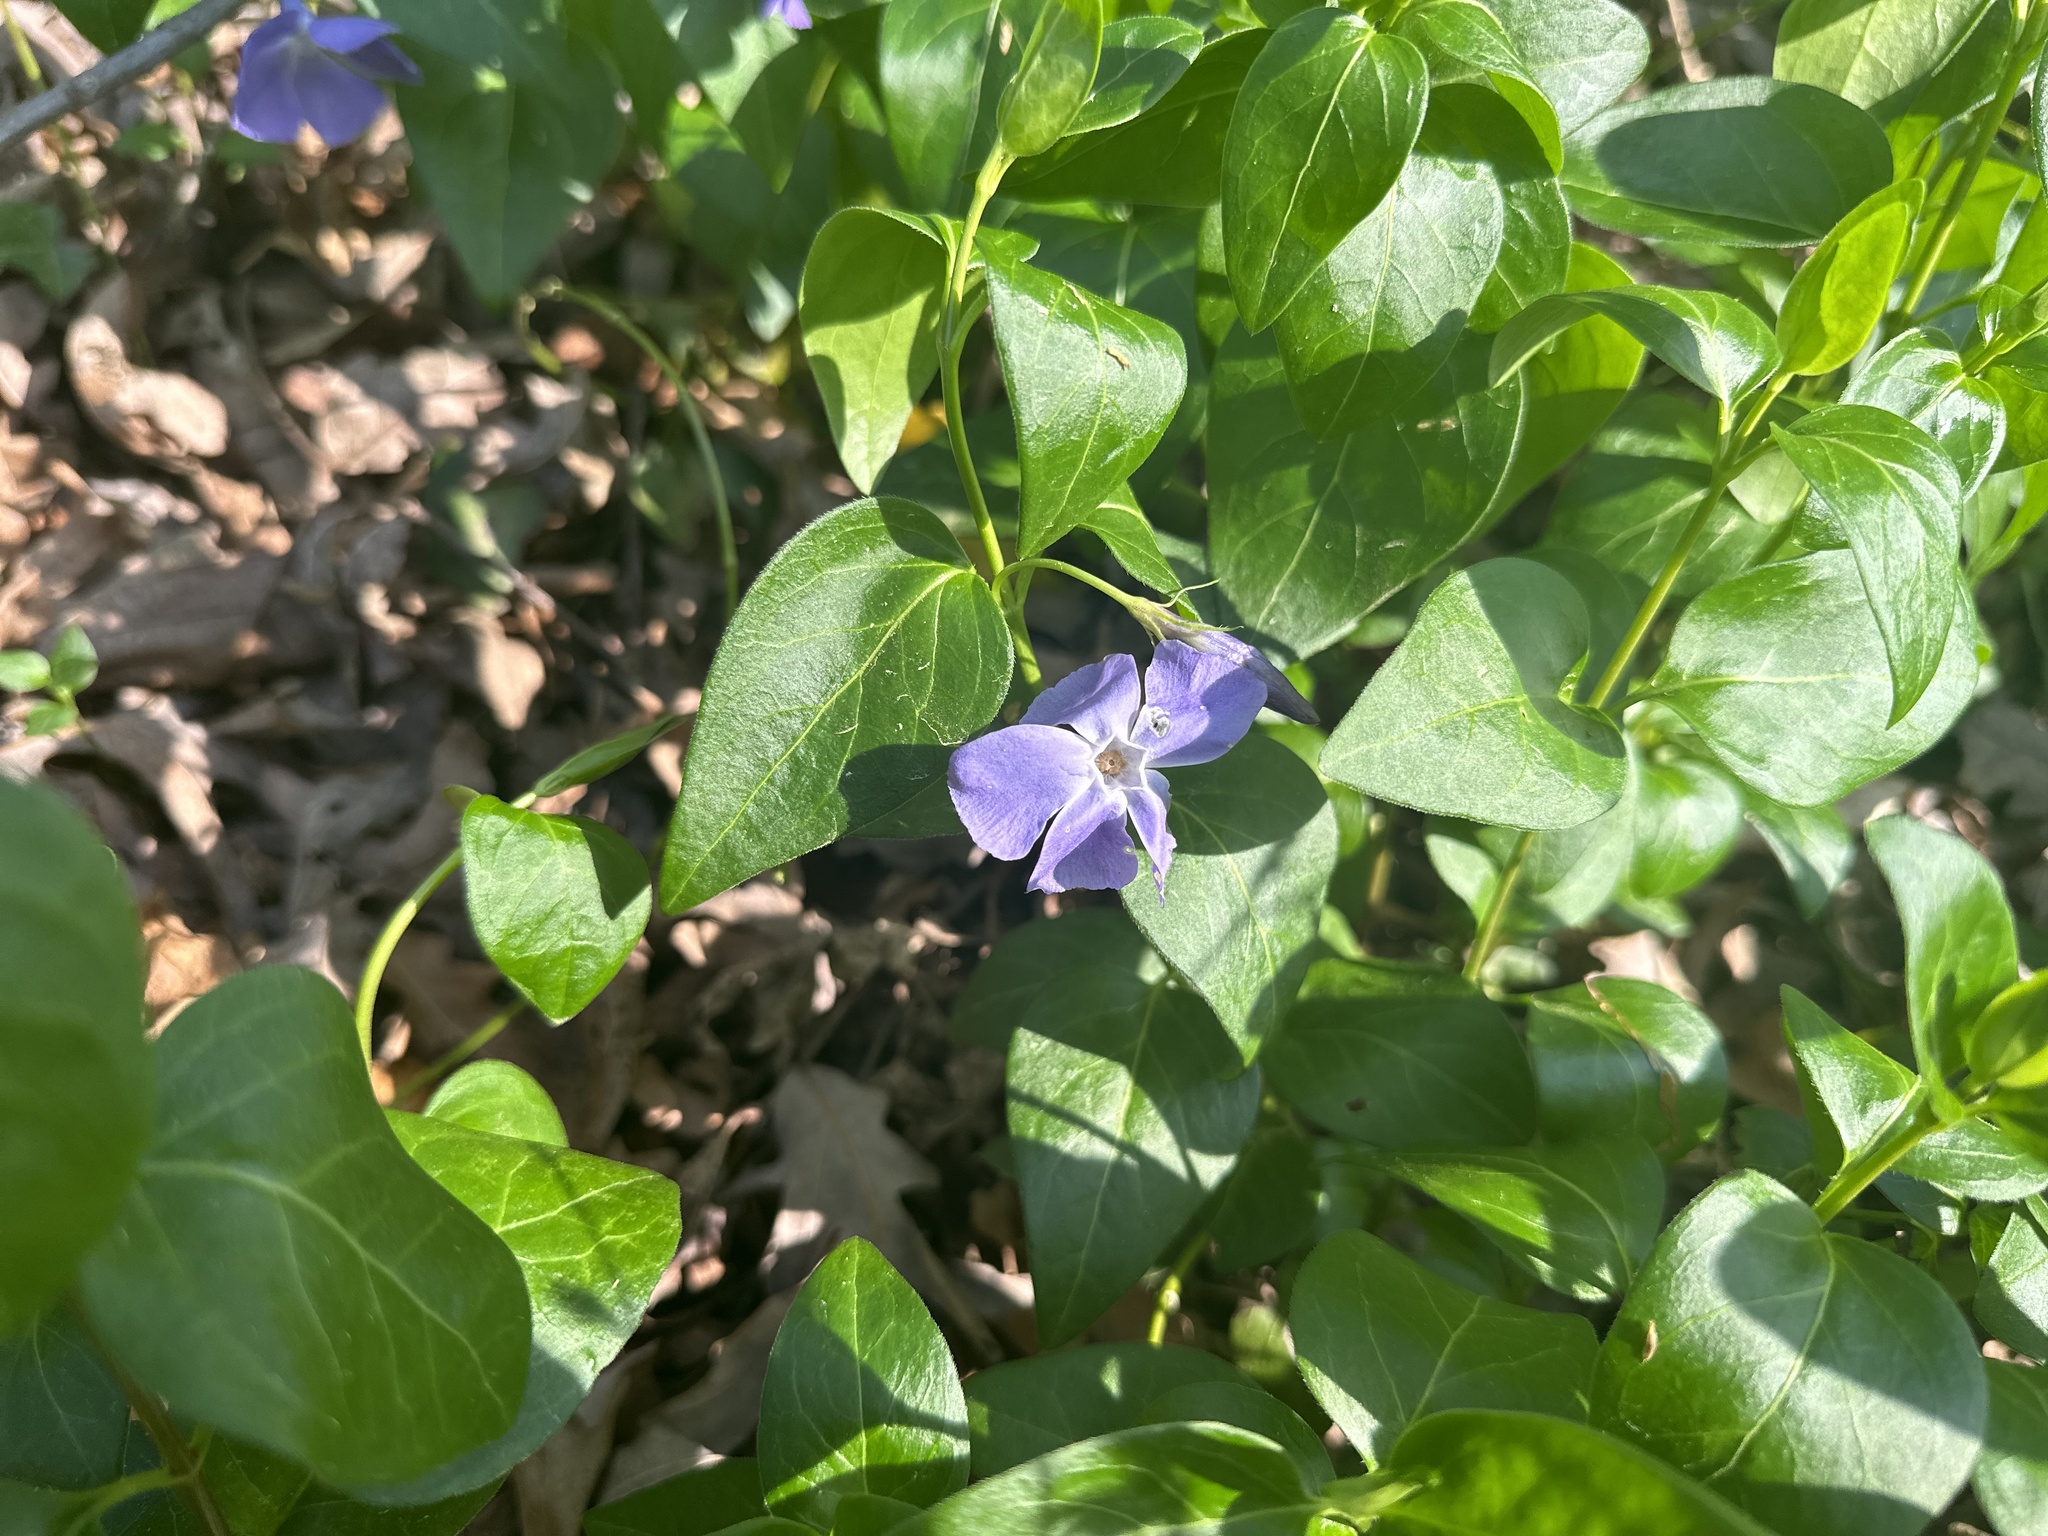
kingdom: Plantae
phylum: Tracheophyta
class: Magnoliopsida
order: Gentianales
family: Apocynaceae
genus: Vinca
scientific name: Vinca major
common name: Greater periwinkle
